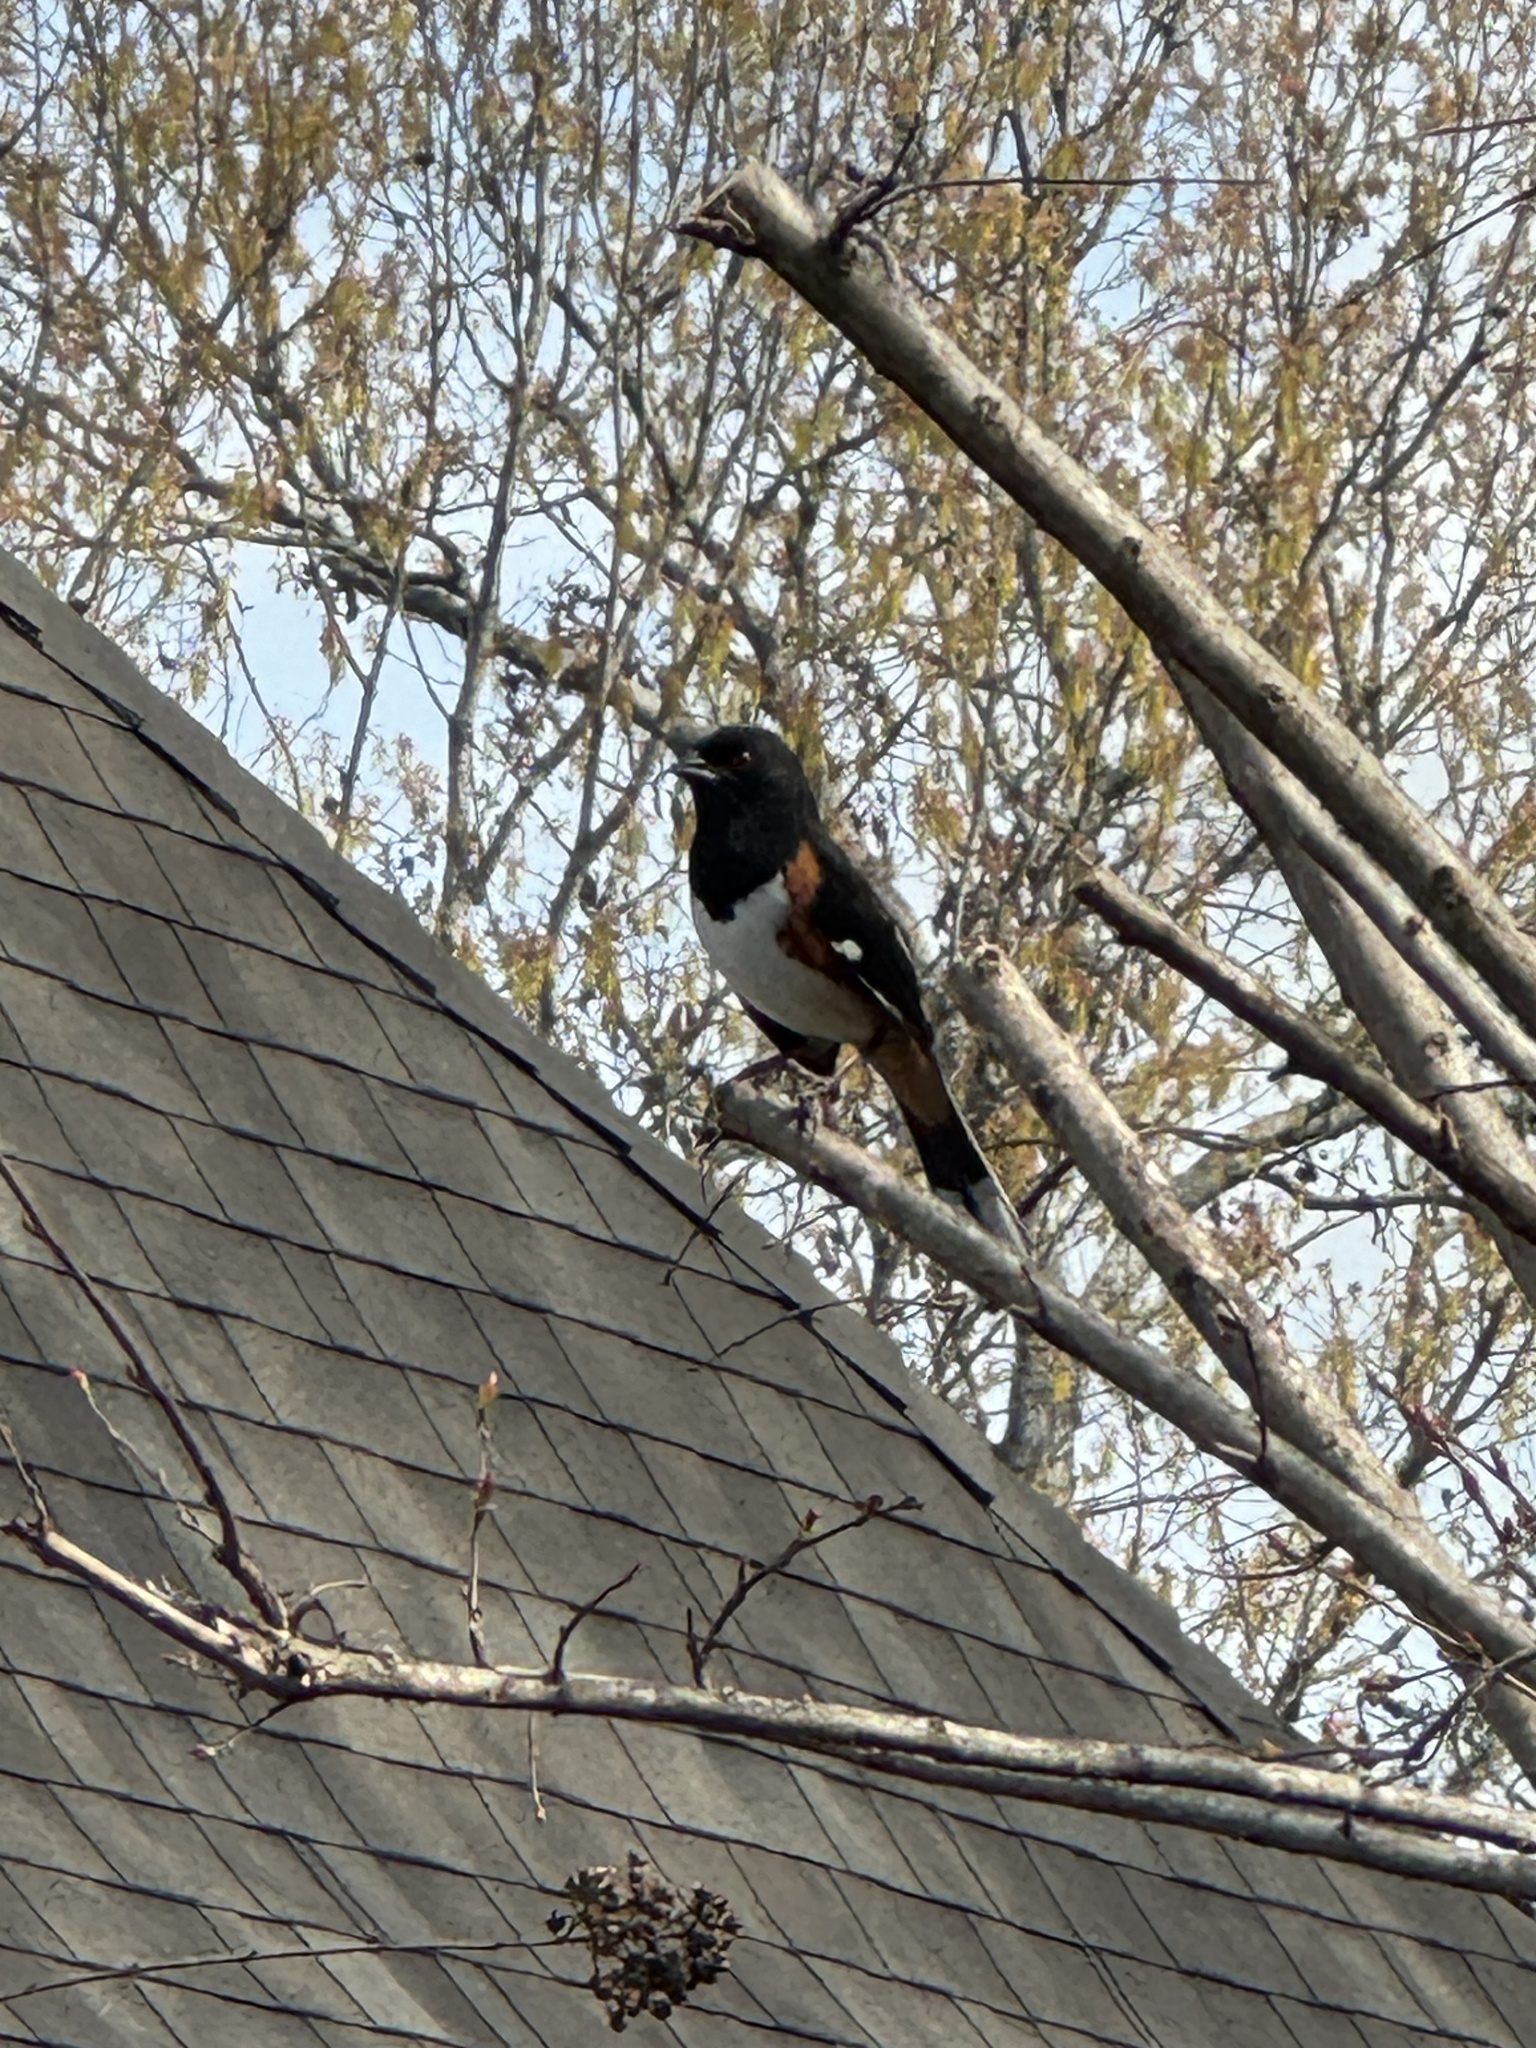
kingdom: Animalia
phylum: Chordata
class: Aves
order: Passeriformes
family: Passerellidae
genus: Pipilo
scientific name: Pipilo erythrophthalmus
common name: Eastern towhee
